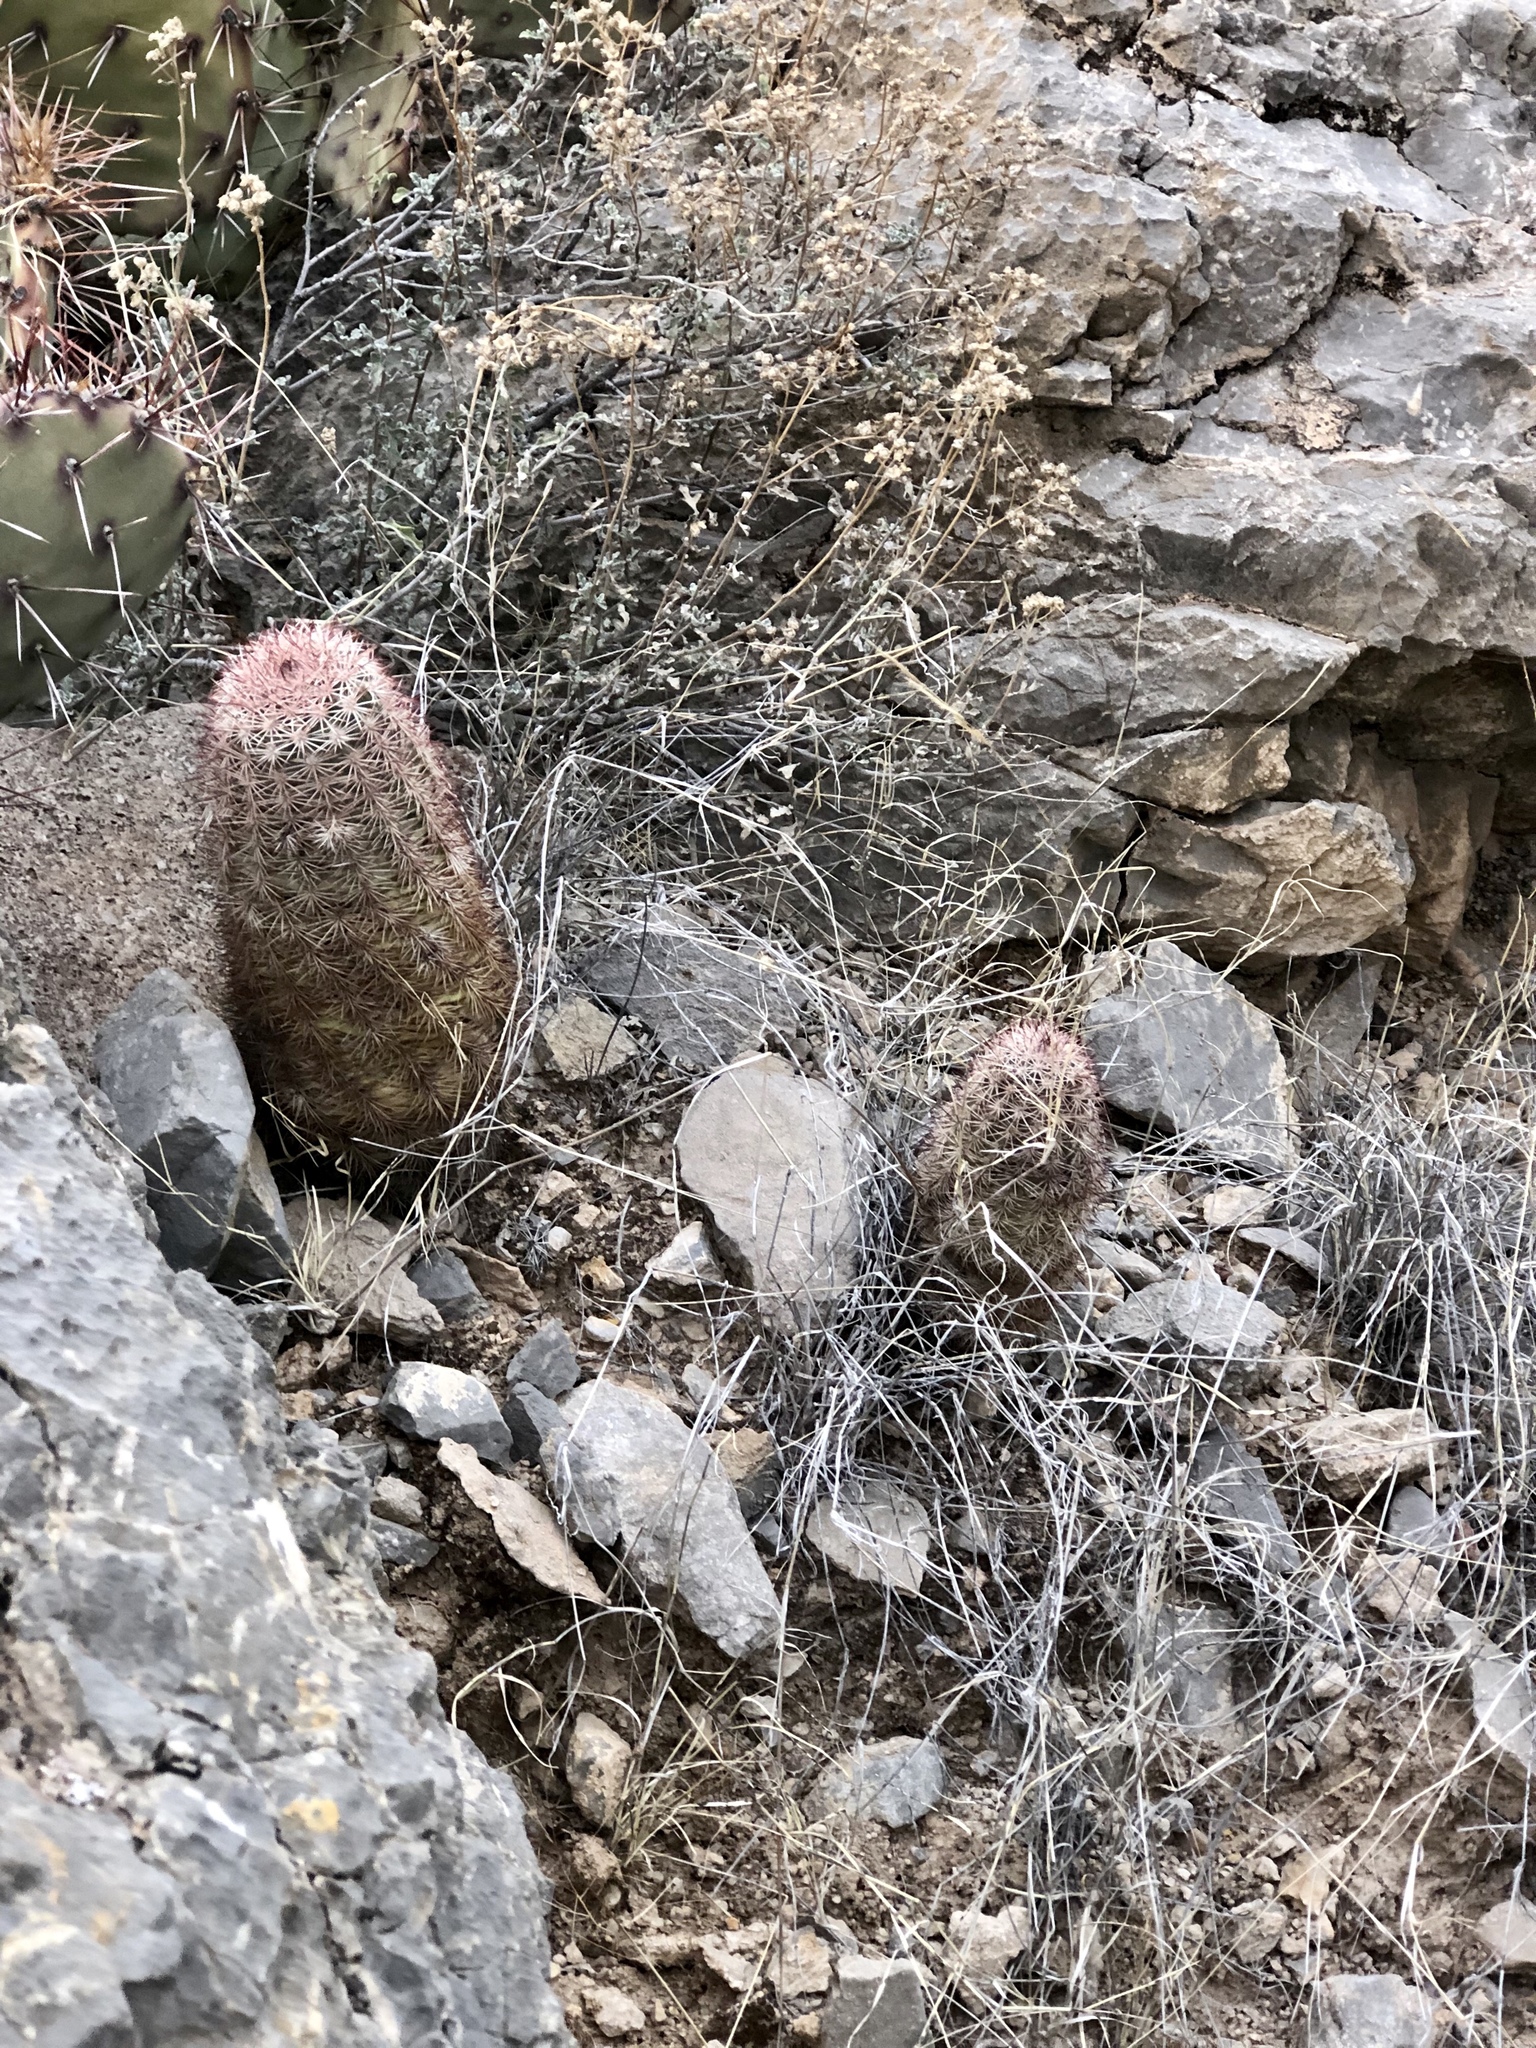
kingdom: Plantae
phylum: Tracheophyta
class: Magnoliopsida
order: Caryophyllales
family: Cactaceae
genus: Echinocereus
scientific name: Echinocereus dasyacanthus
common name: Spiny hedgehog cactus
